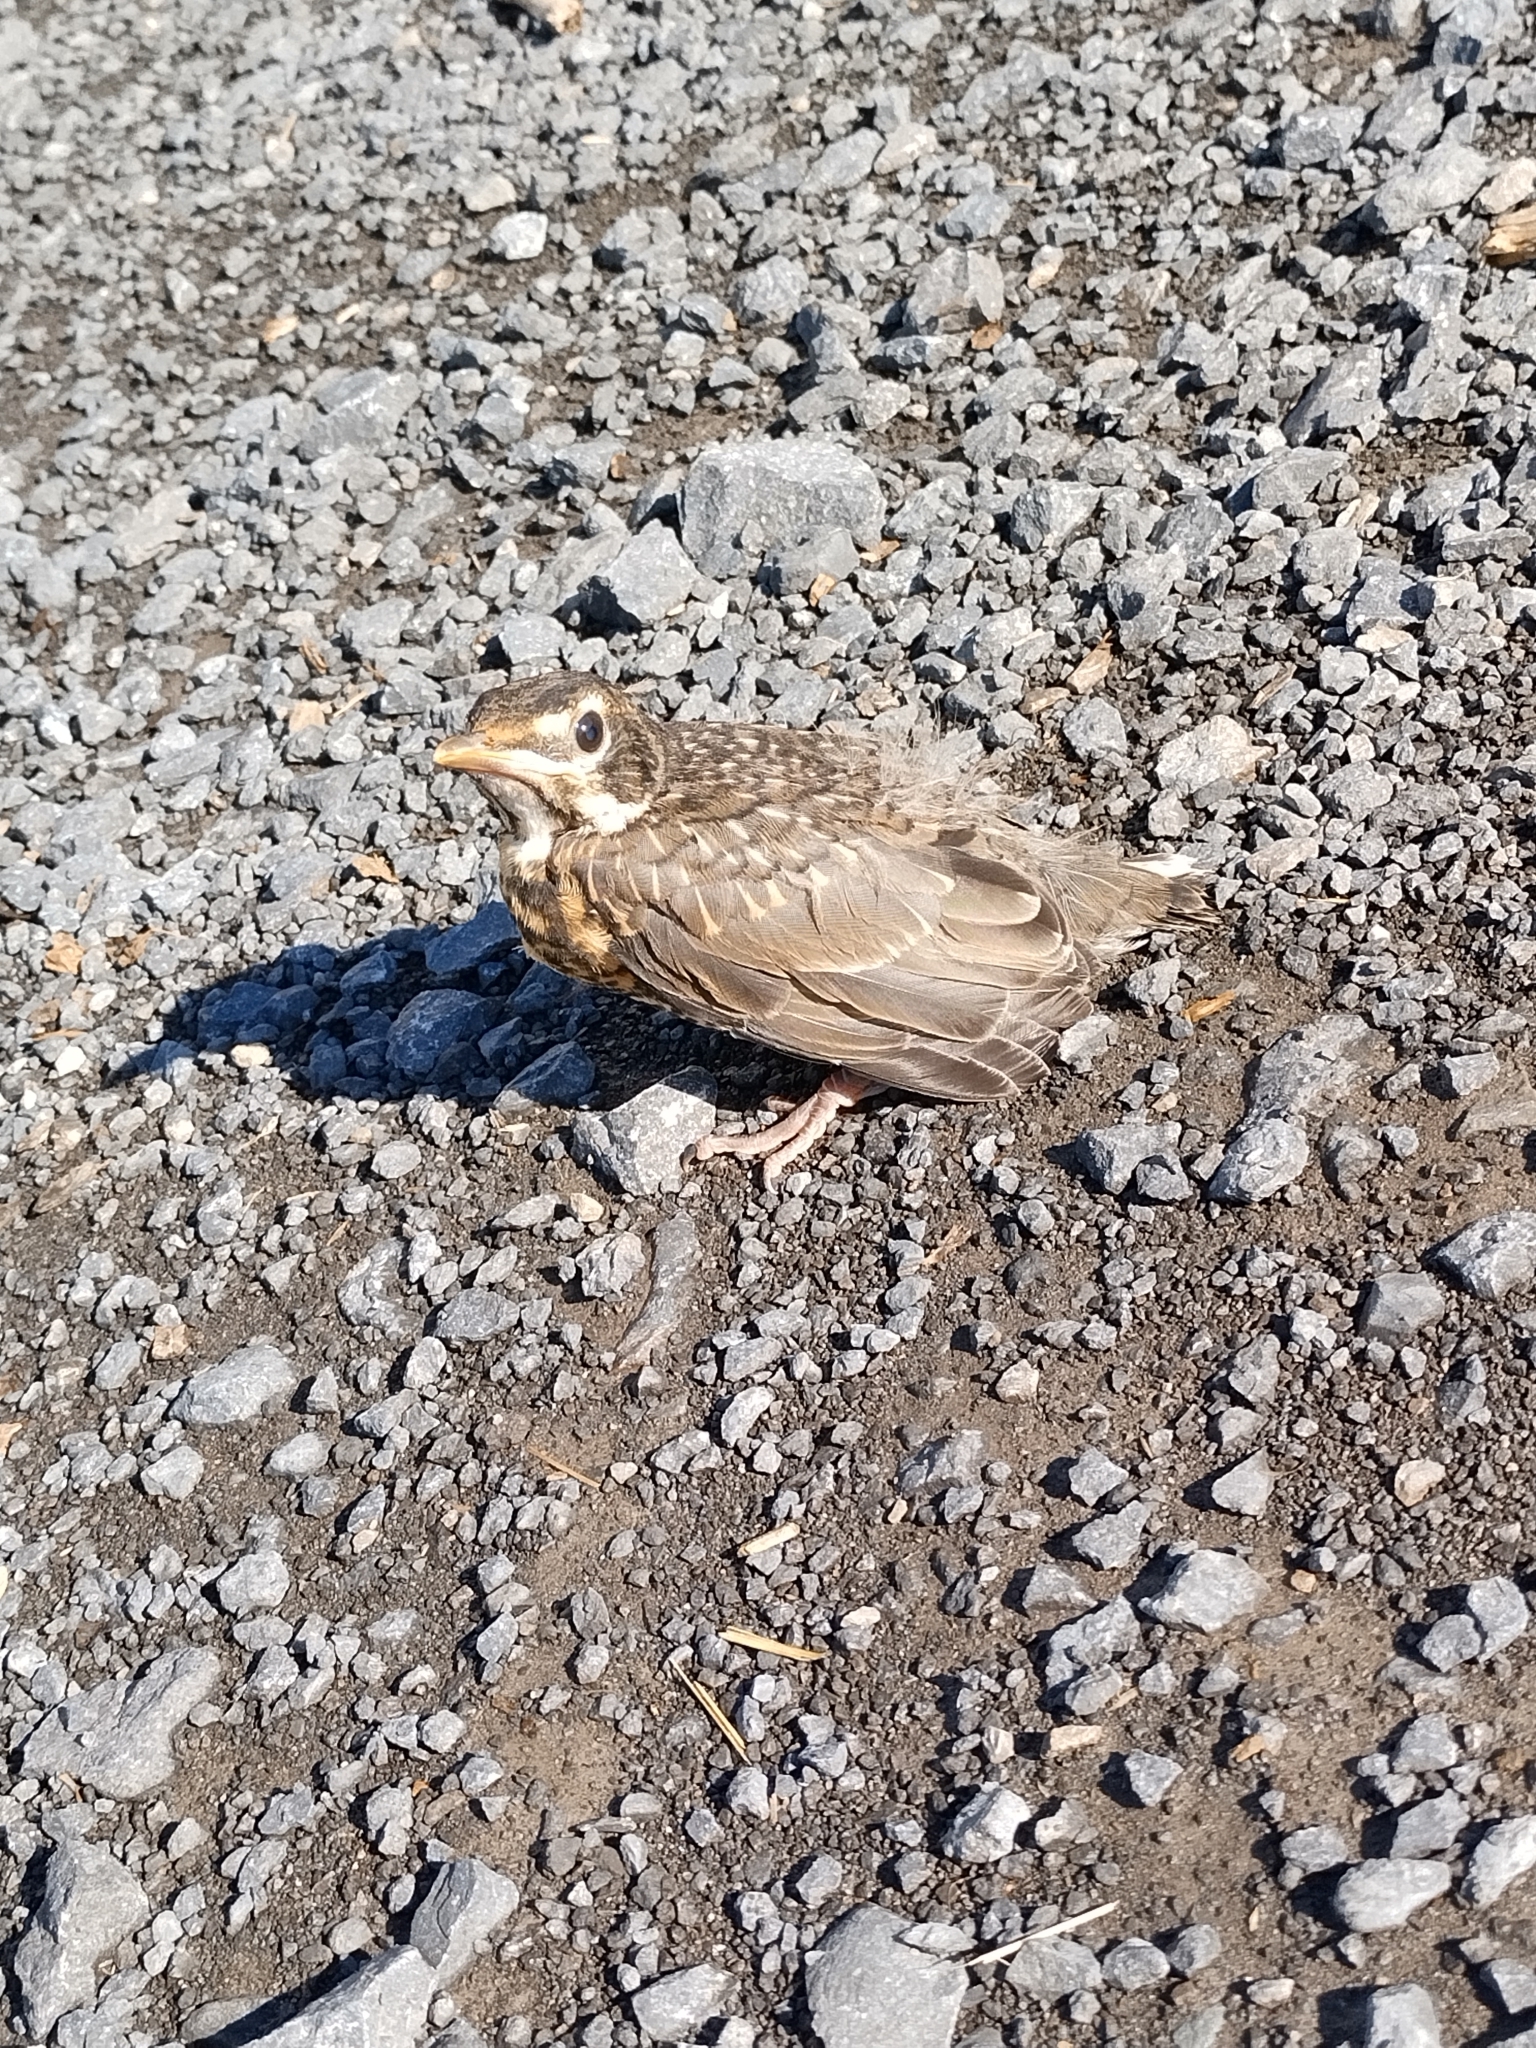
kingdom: Animalia
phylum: Chordata
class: Aves
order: Passeriformes
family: Turdidae
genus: Turdus
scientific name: Turdus migratorius
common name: American robin
